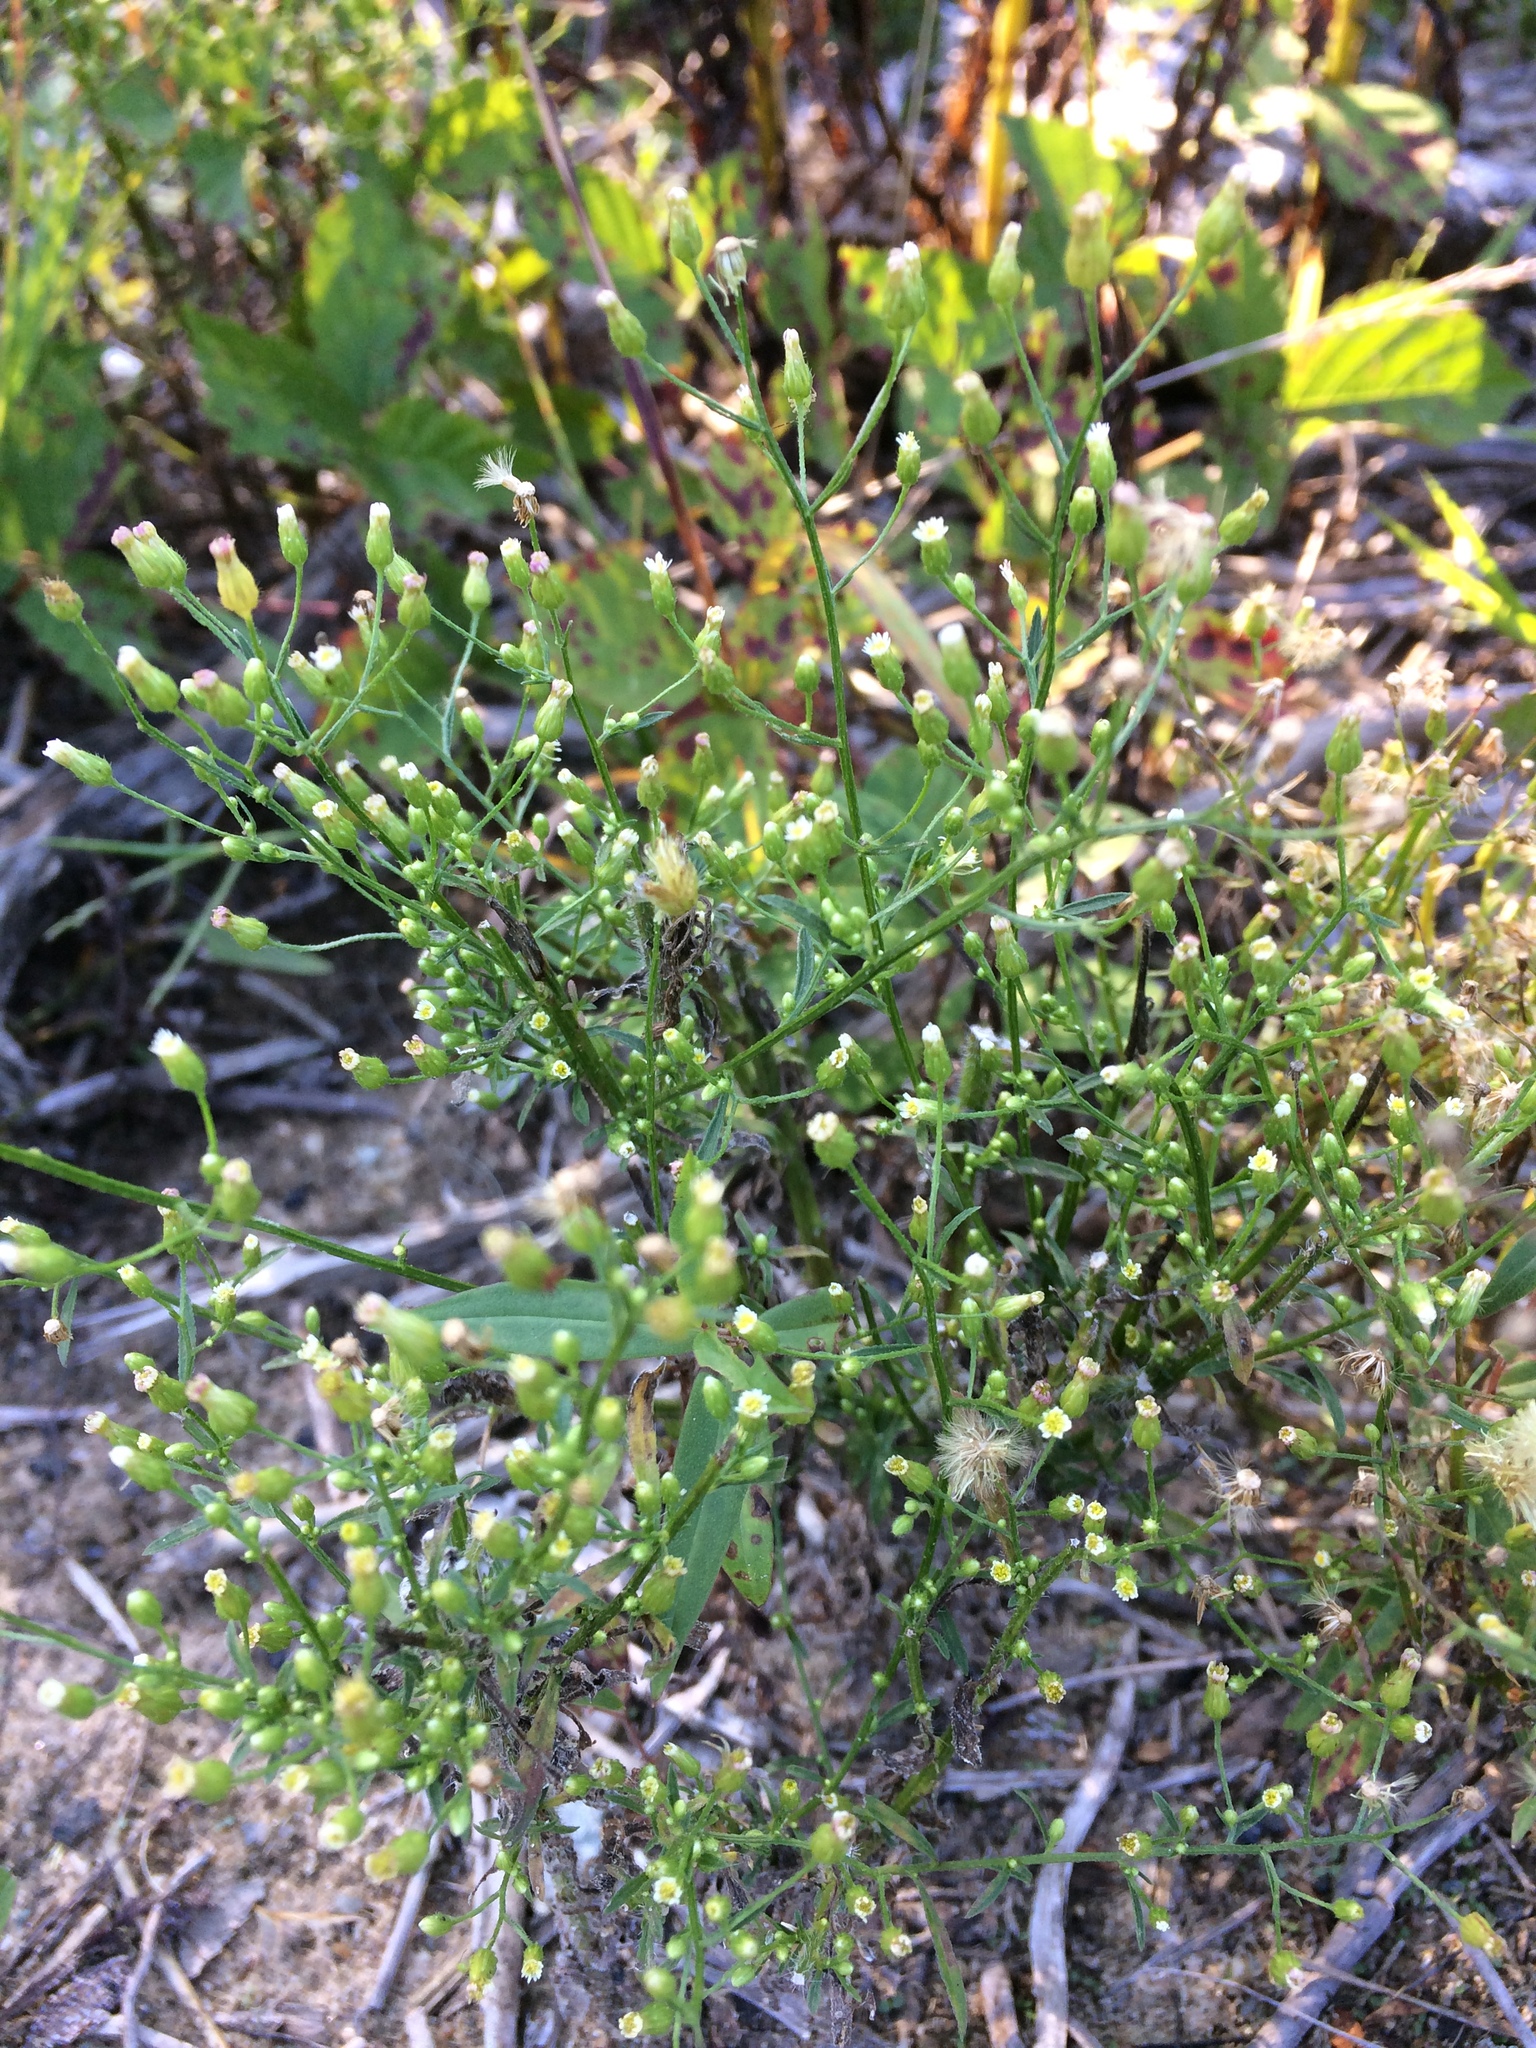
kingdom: Plantae
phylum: Tracheophyta
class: Magnoliopsida
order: Asterales
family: Asteraceae
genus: Erigeron
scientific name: Erigeron canadensis
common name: Canadian fleabane
